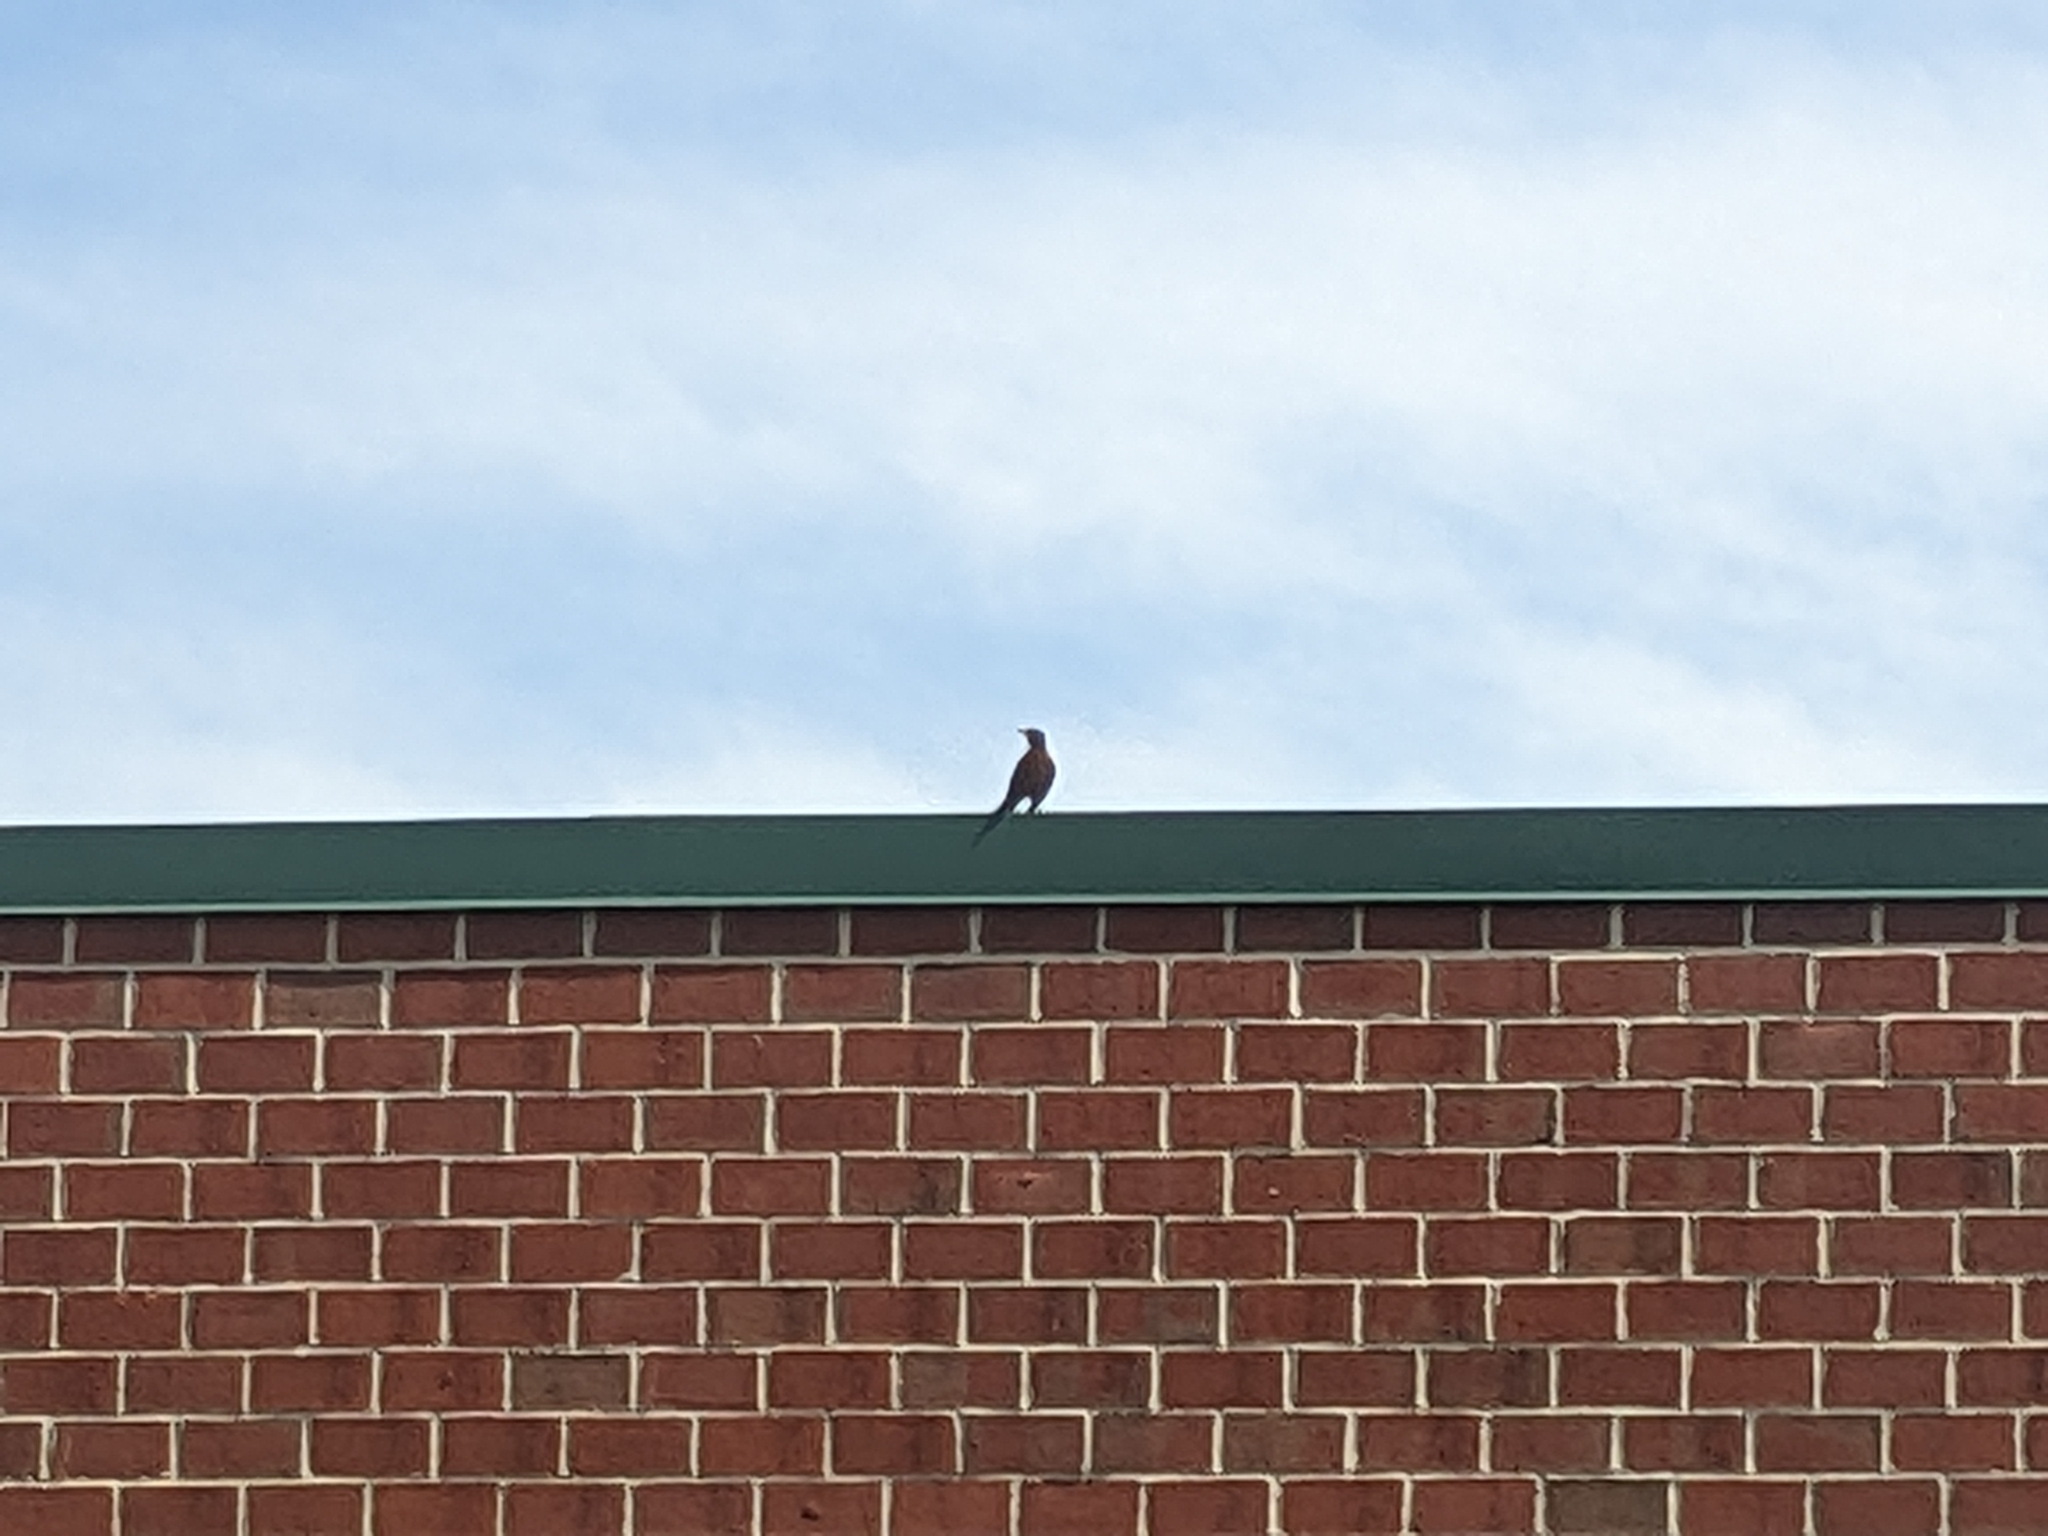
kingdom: Animalia
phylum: Chordata
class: Aves
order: Passeriformes
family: Turdidae
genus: Turdus
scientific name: Turdus migratorius
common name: American robin
